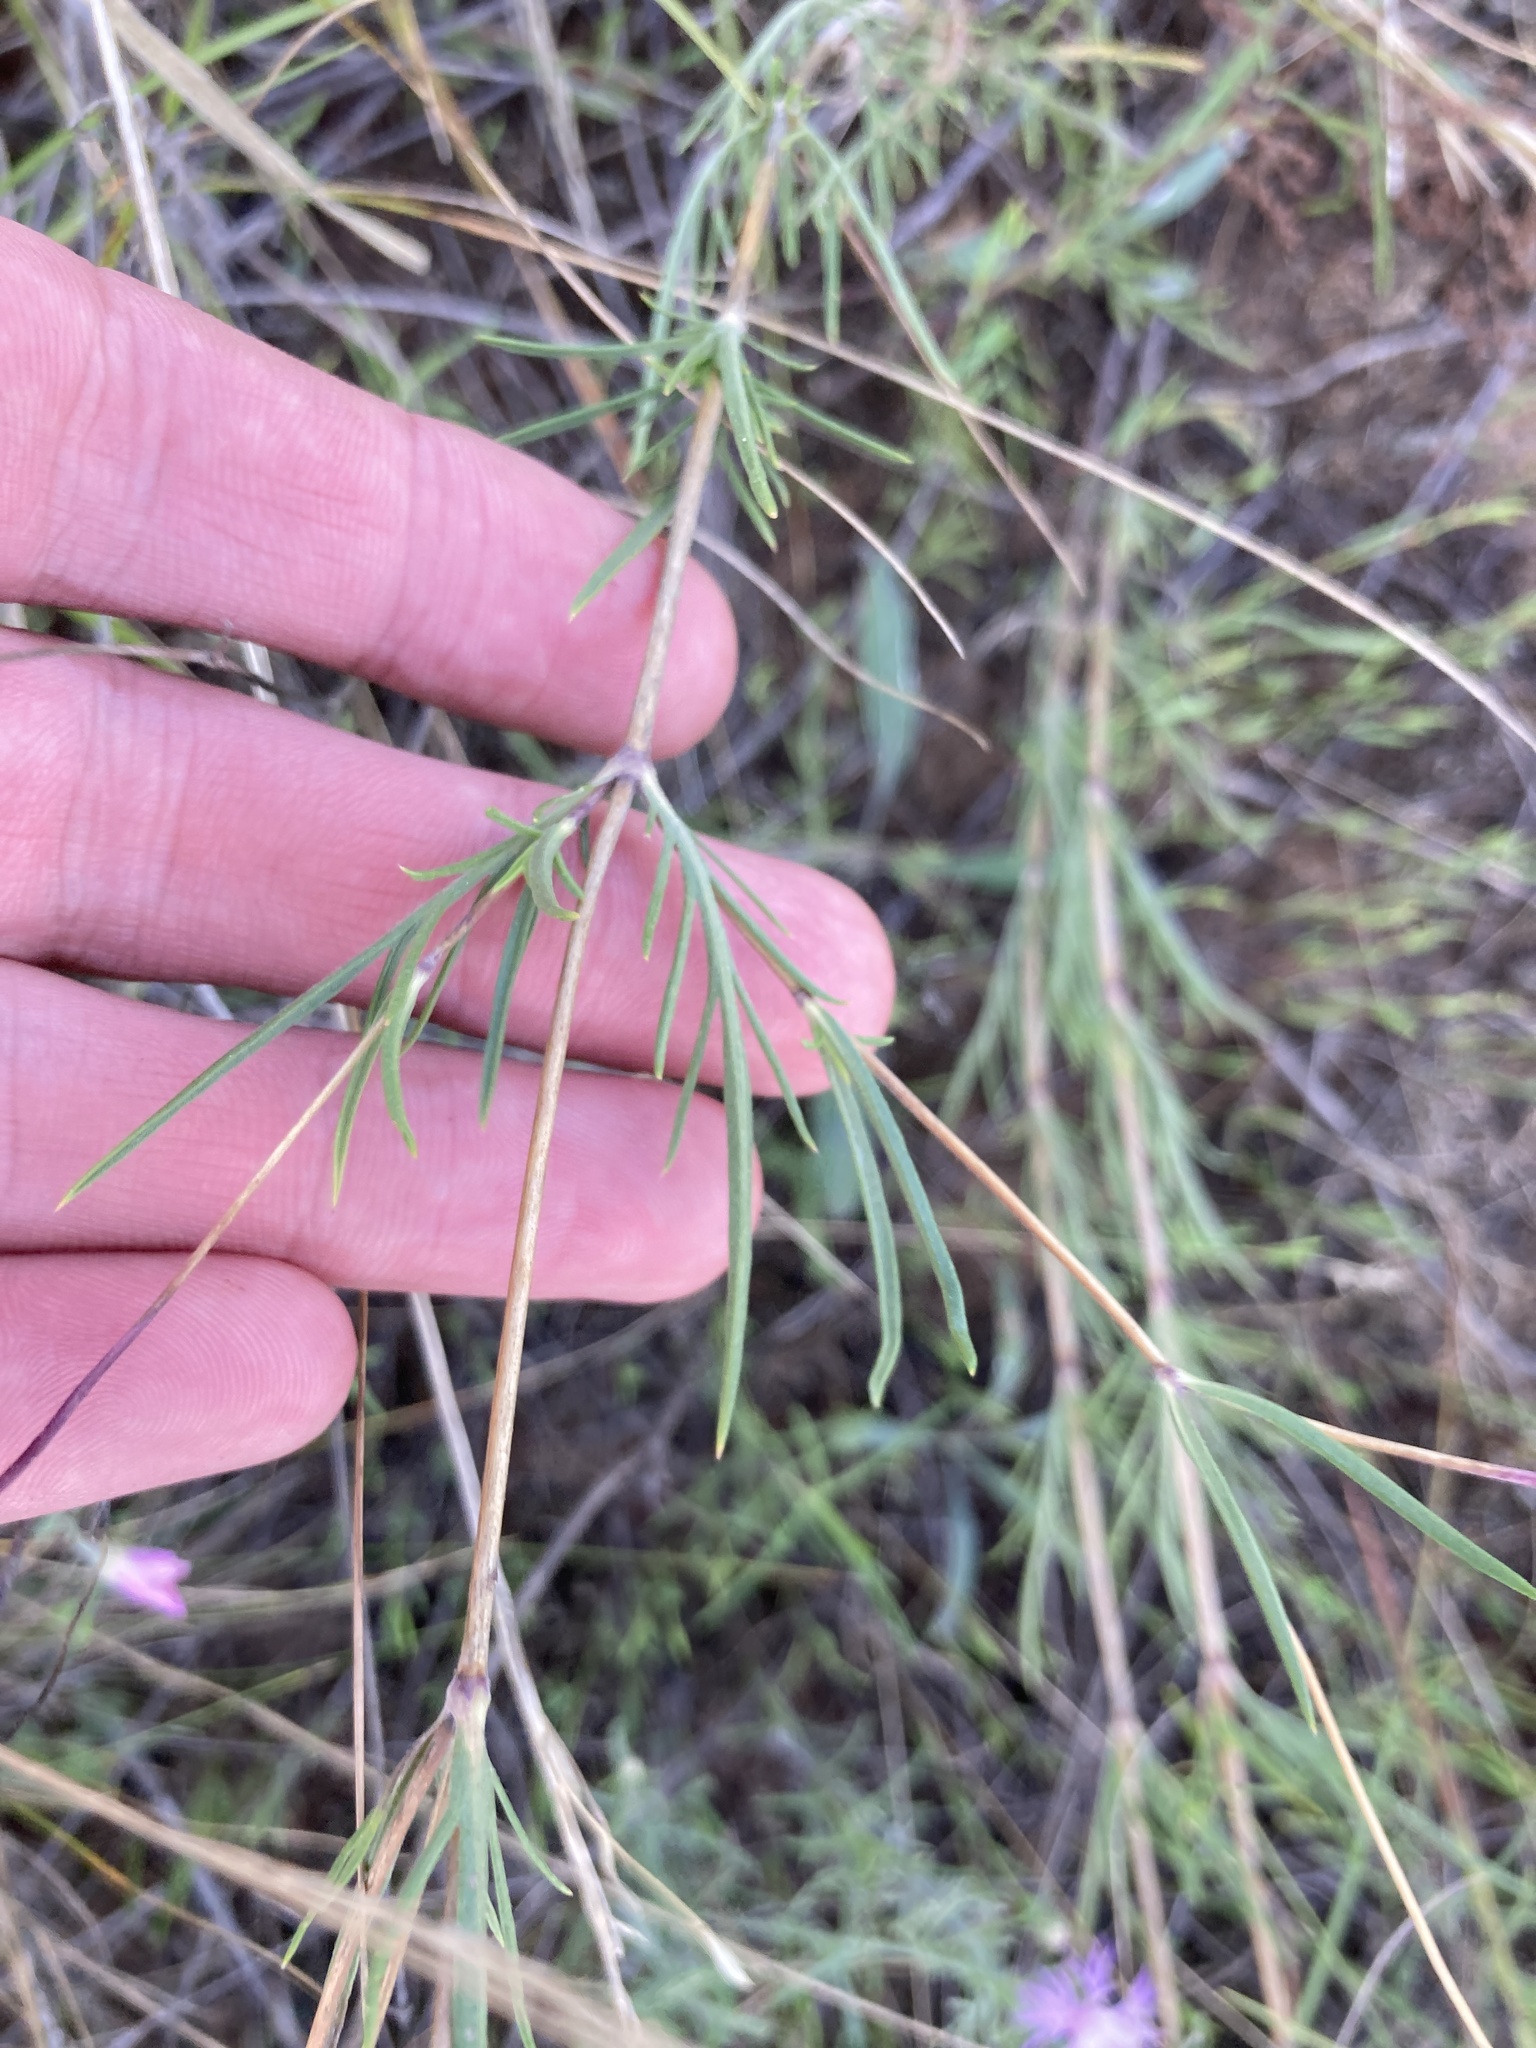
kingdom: Plantae
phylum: Tracheophyta
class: Magnoliopsida
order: Dipsacales
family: Caprifoliaceae
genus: Lomelosia
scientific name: Lomelosia argentea
